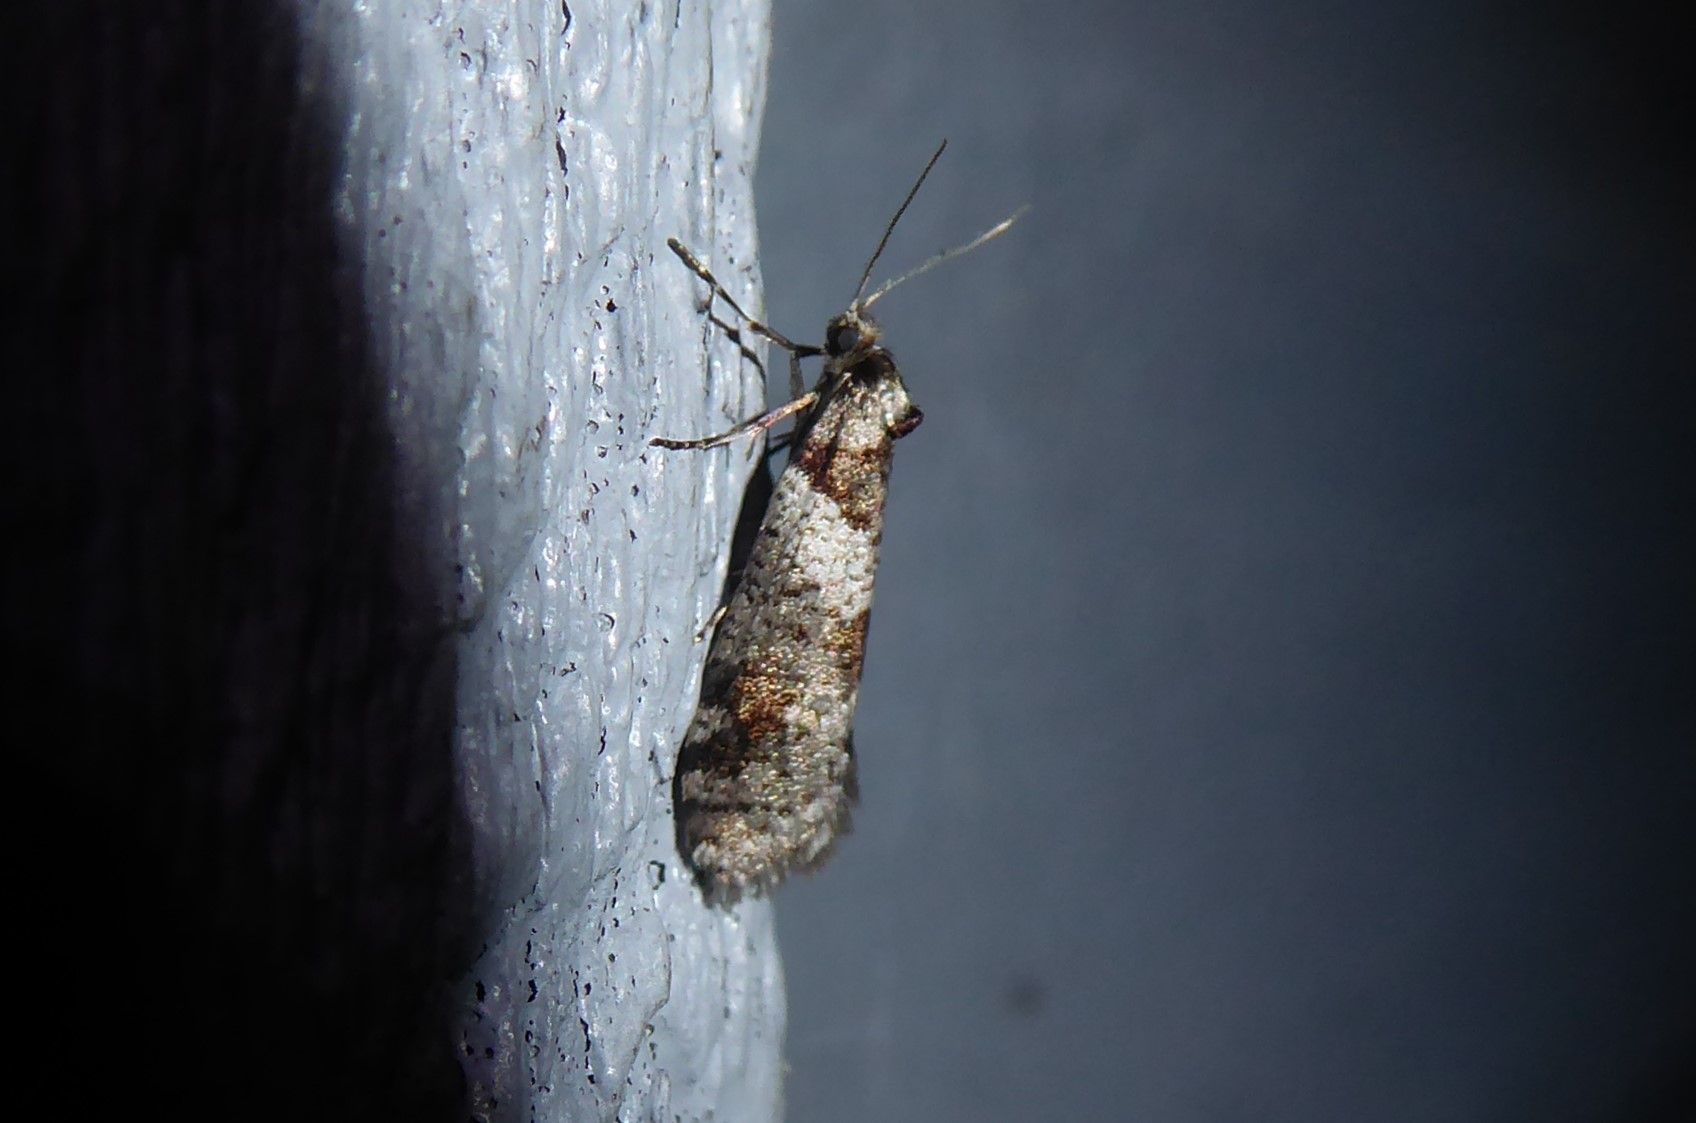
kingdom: Animalia
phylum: Arthropoda
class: Insecta
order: Lepidoptera
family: Psychidae
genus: Lepidoscia
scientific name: Lepidoscia heliochares
